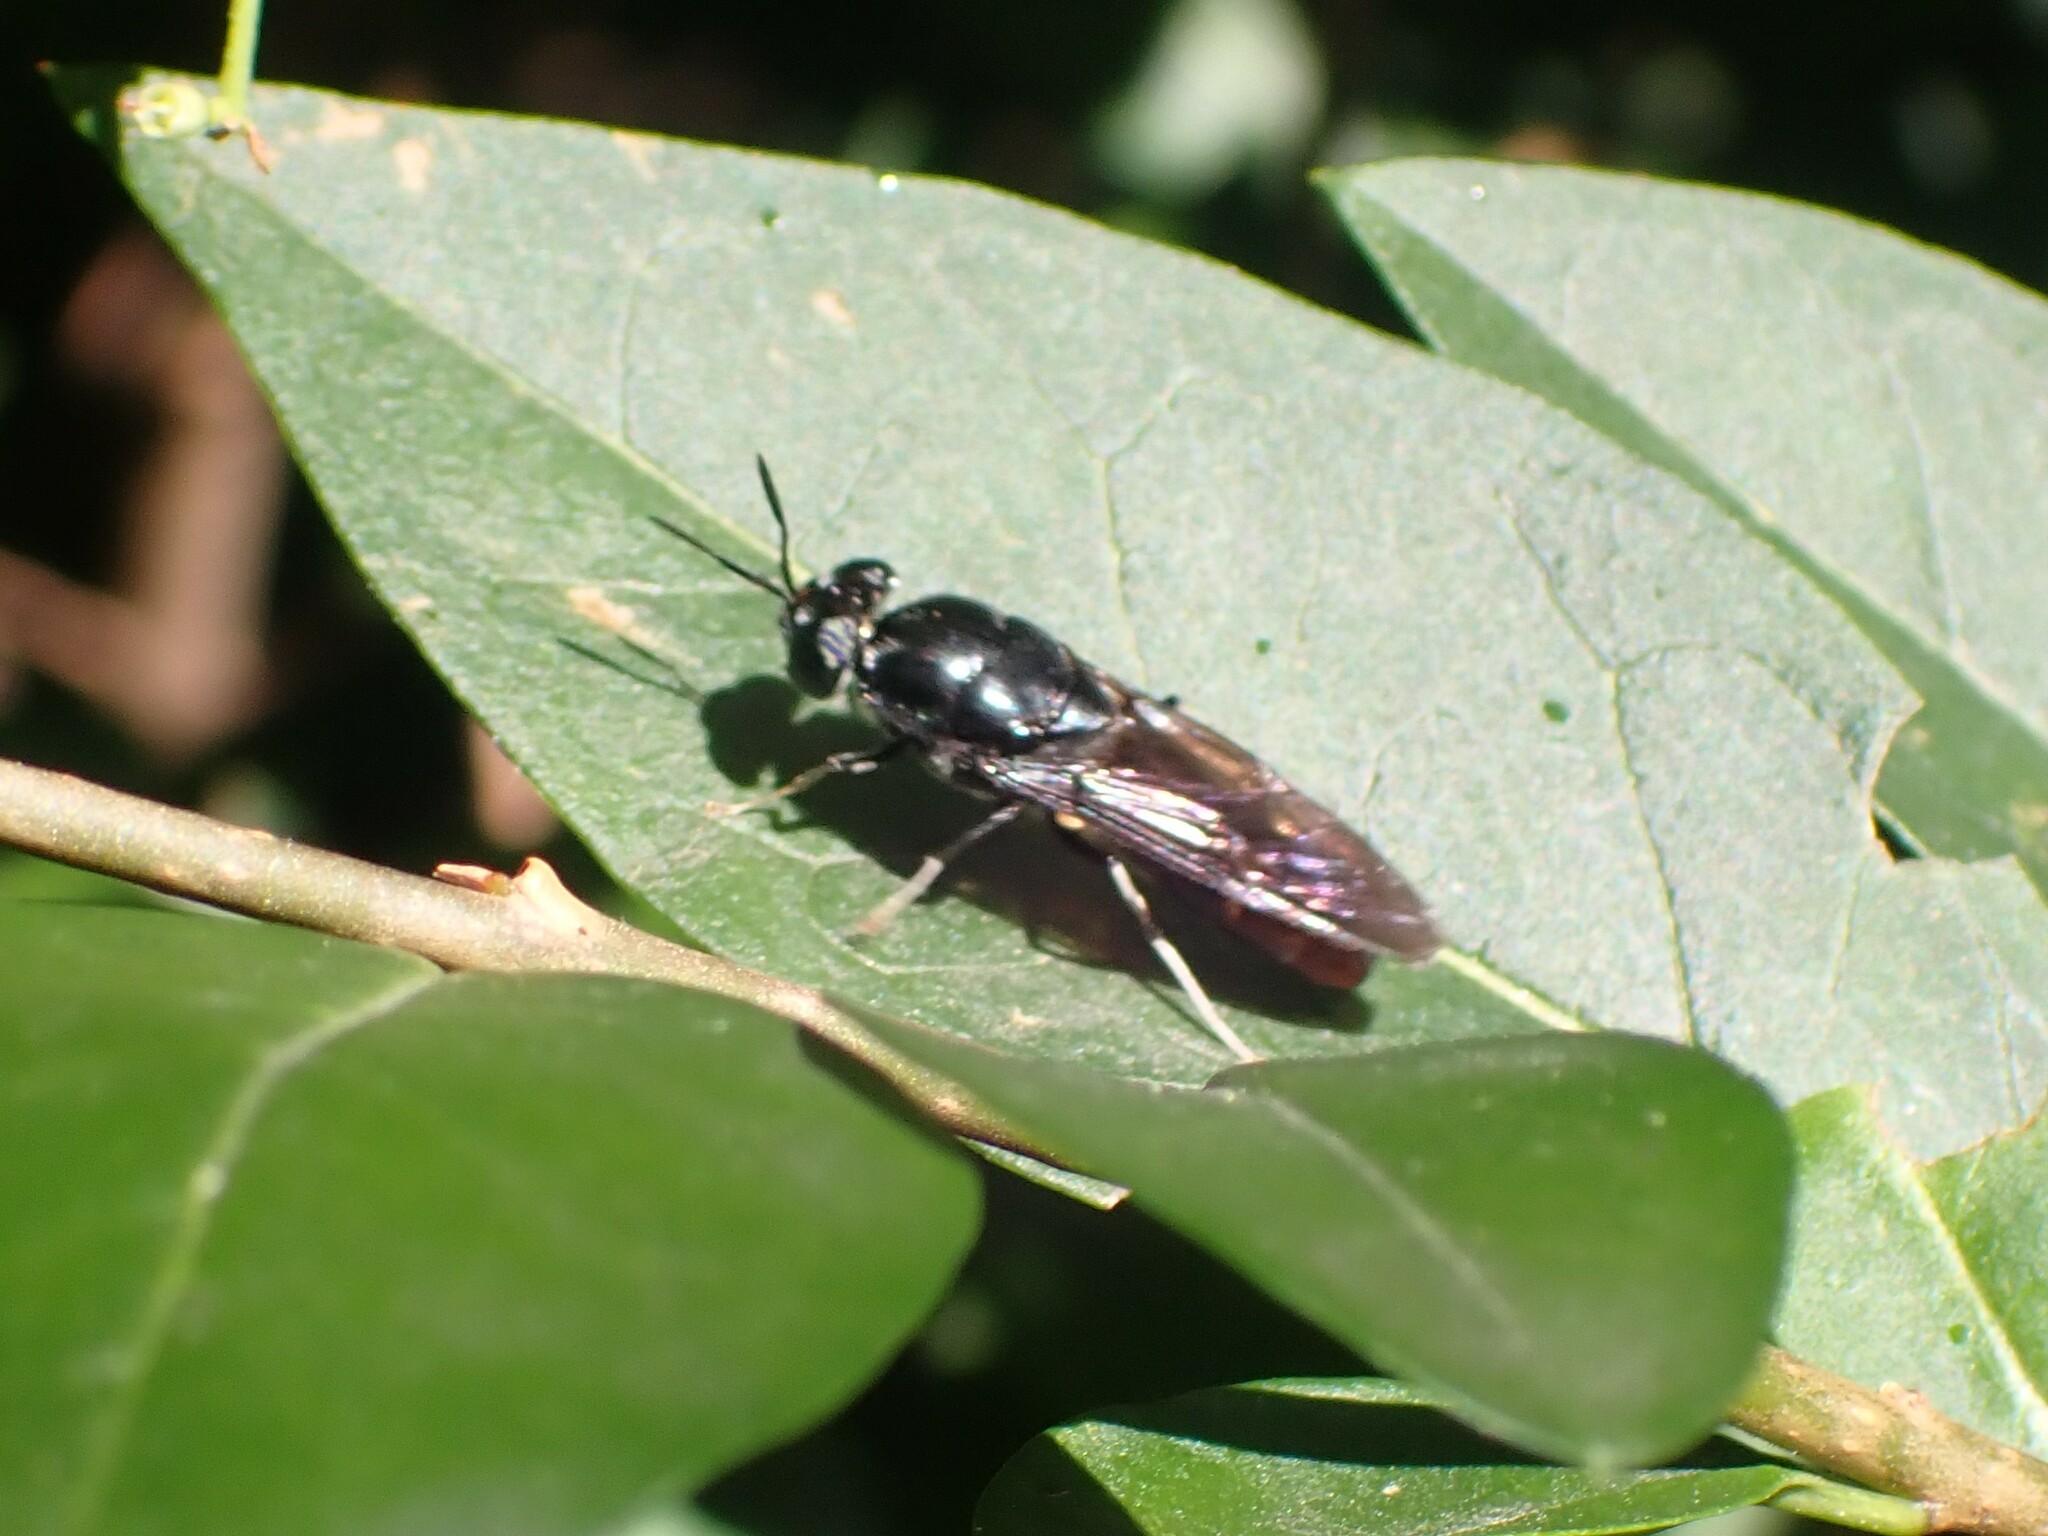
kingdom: Animalia
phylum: Arthropoda
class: Insecta
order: Diptera
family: Stratiomyidae
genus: Hermetia
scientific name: Hermetia illucens
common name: Black soldier fly
